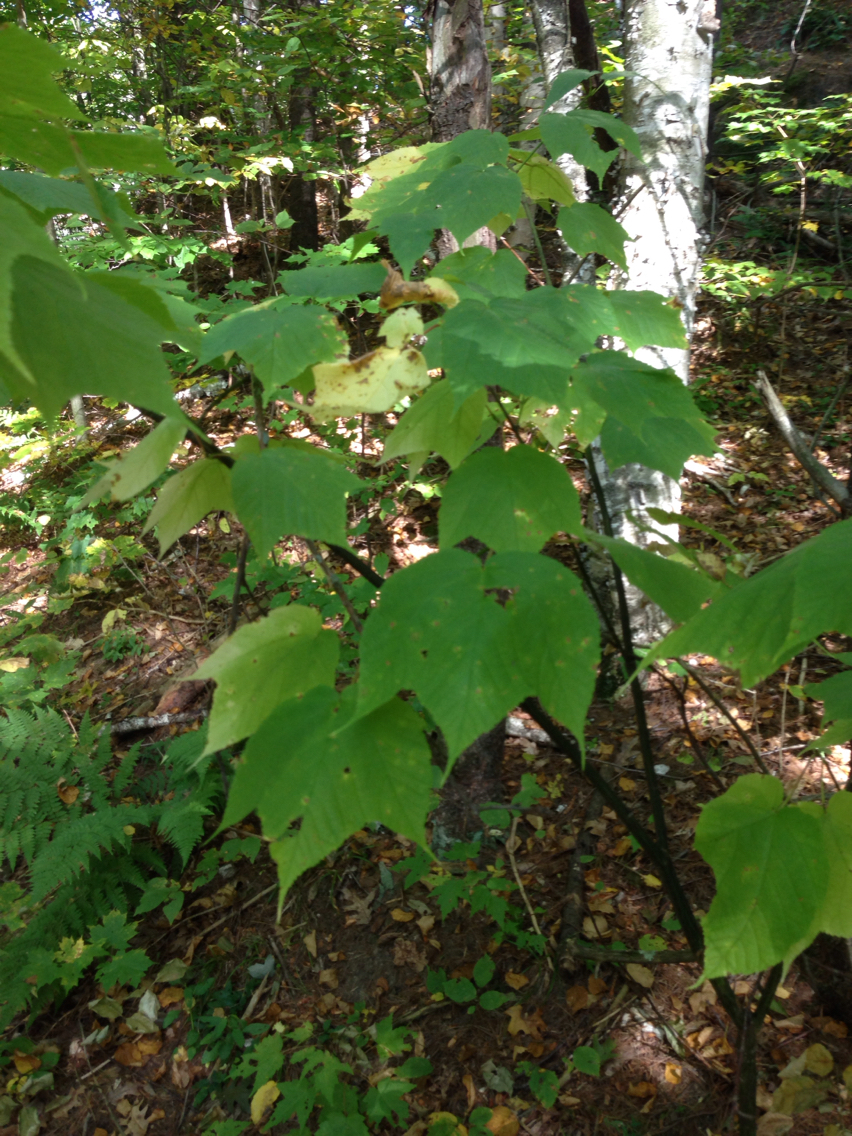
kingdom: Plantae
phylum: Tracheophyta
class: Magnoliopsida
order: Sapindales
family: Sapindaceae
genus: Acer
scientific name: Acer pensylvanicum
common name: Moosewood
